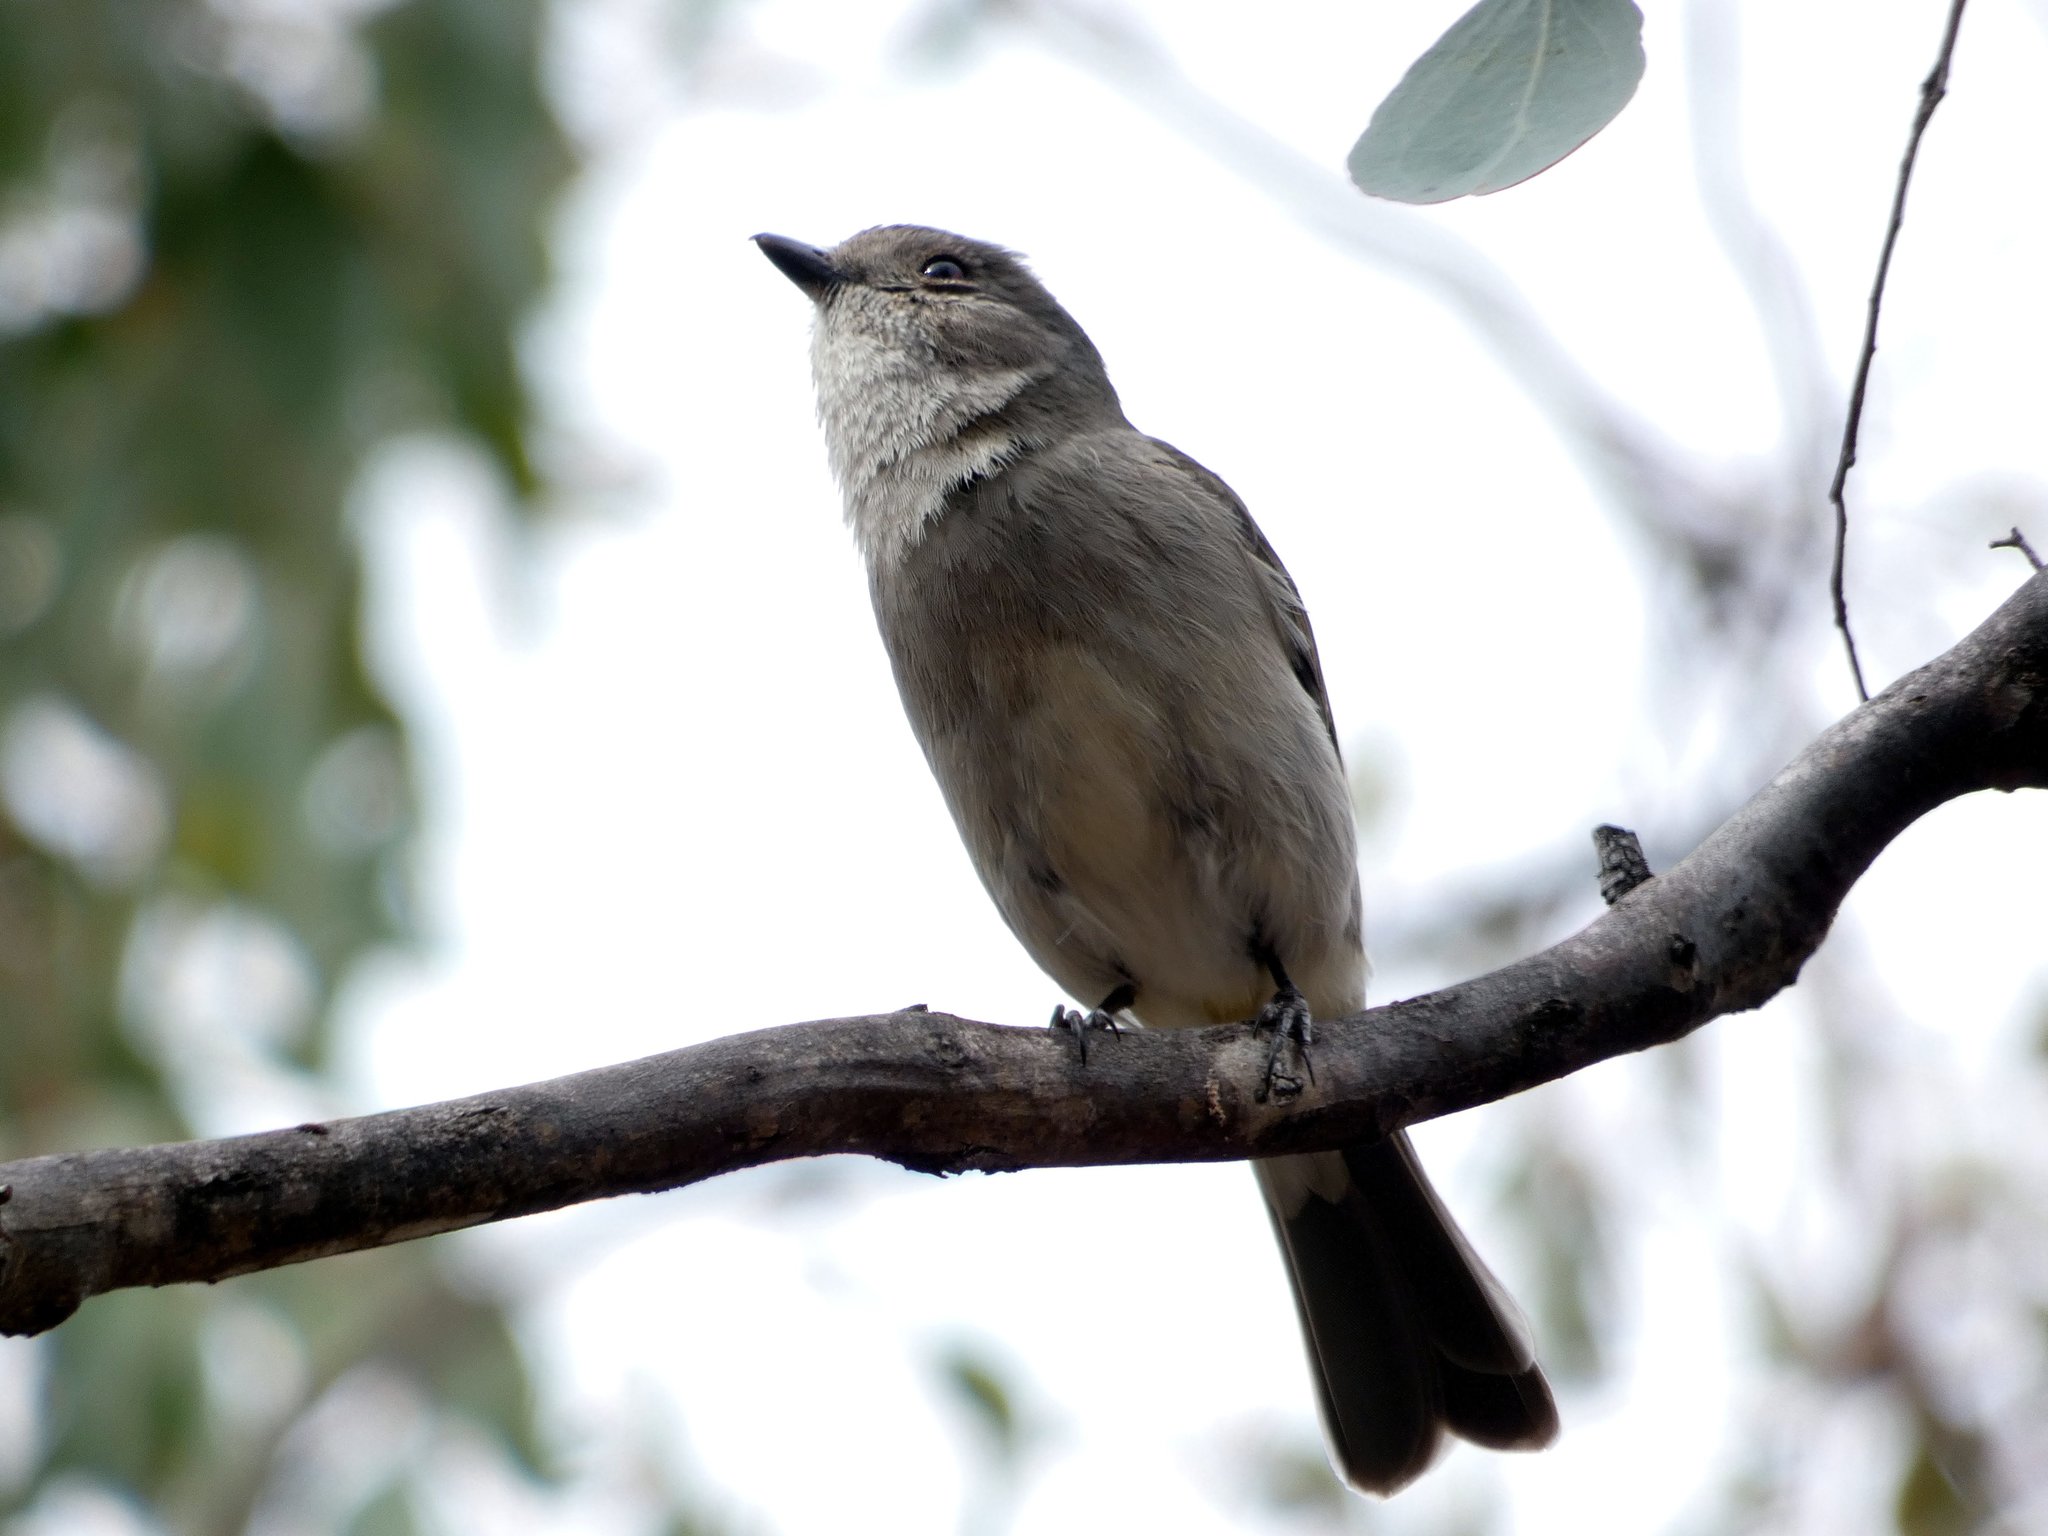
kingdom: Animalia
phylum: Chordata
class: Aves
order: Passeriformes
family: Pachycephalidae
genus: Pachycephala
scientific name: Pachycephala pectoralis
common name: Australian golden whistler
